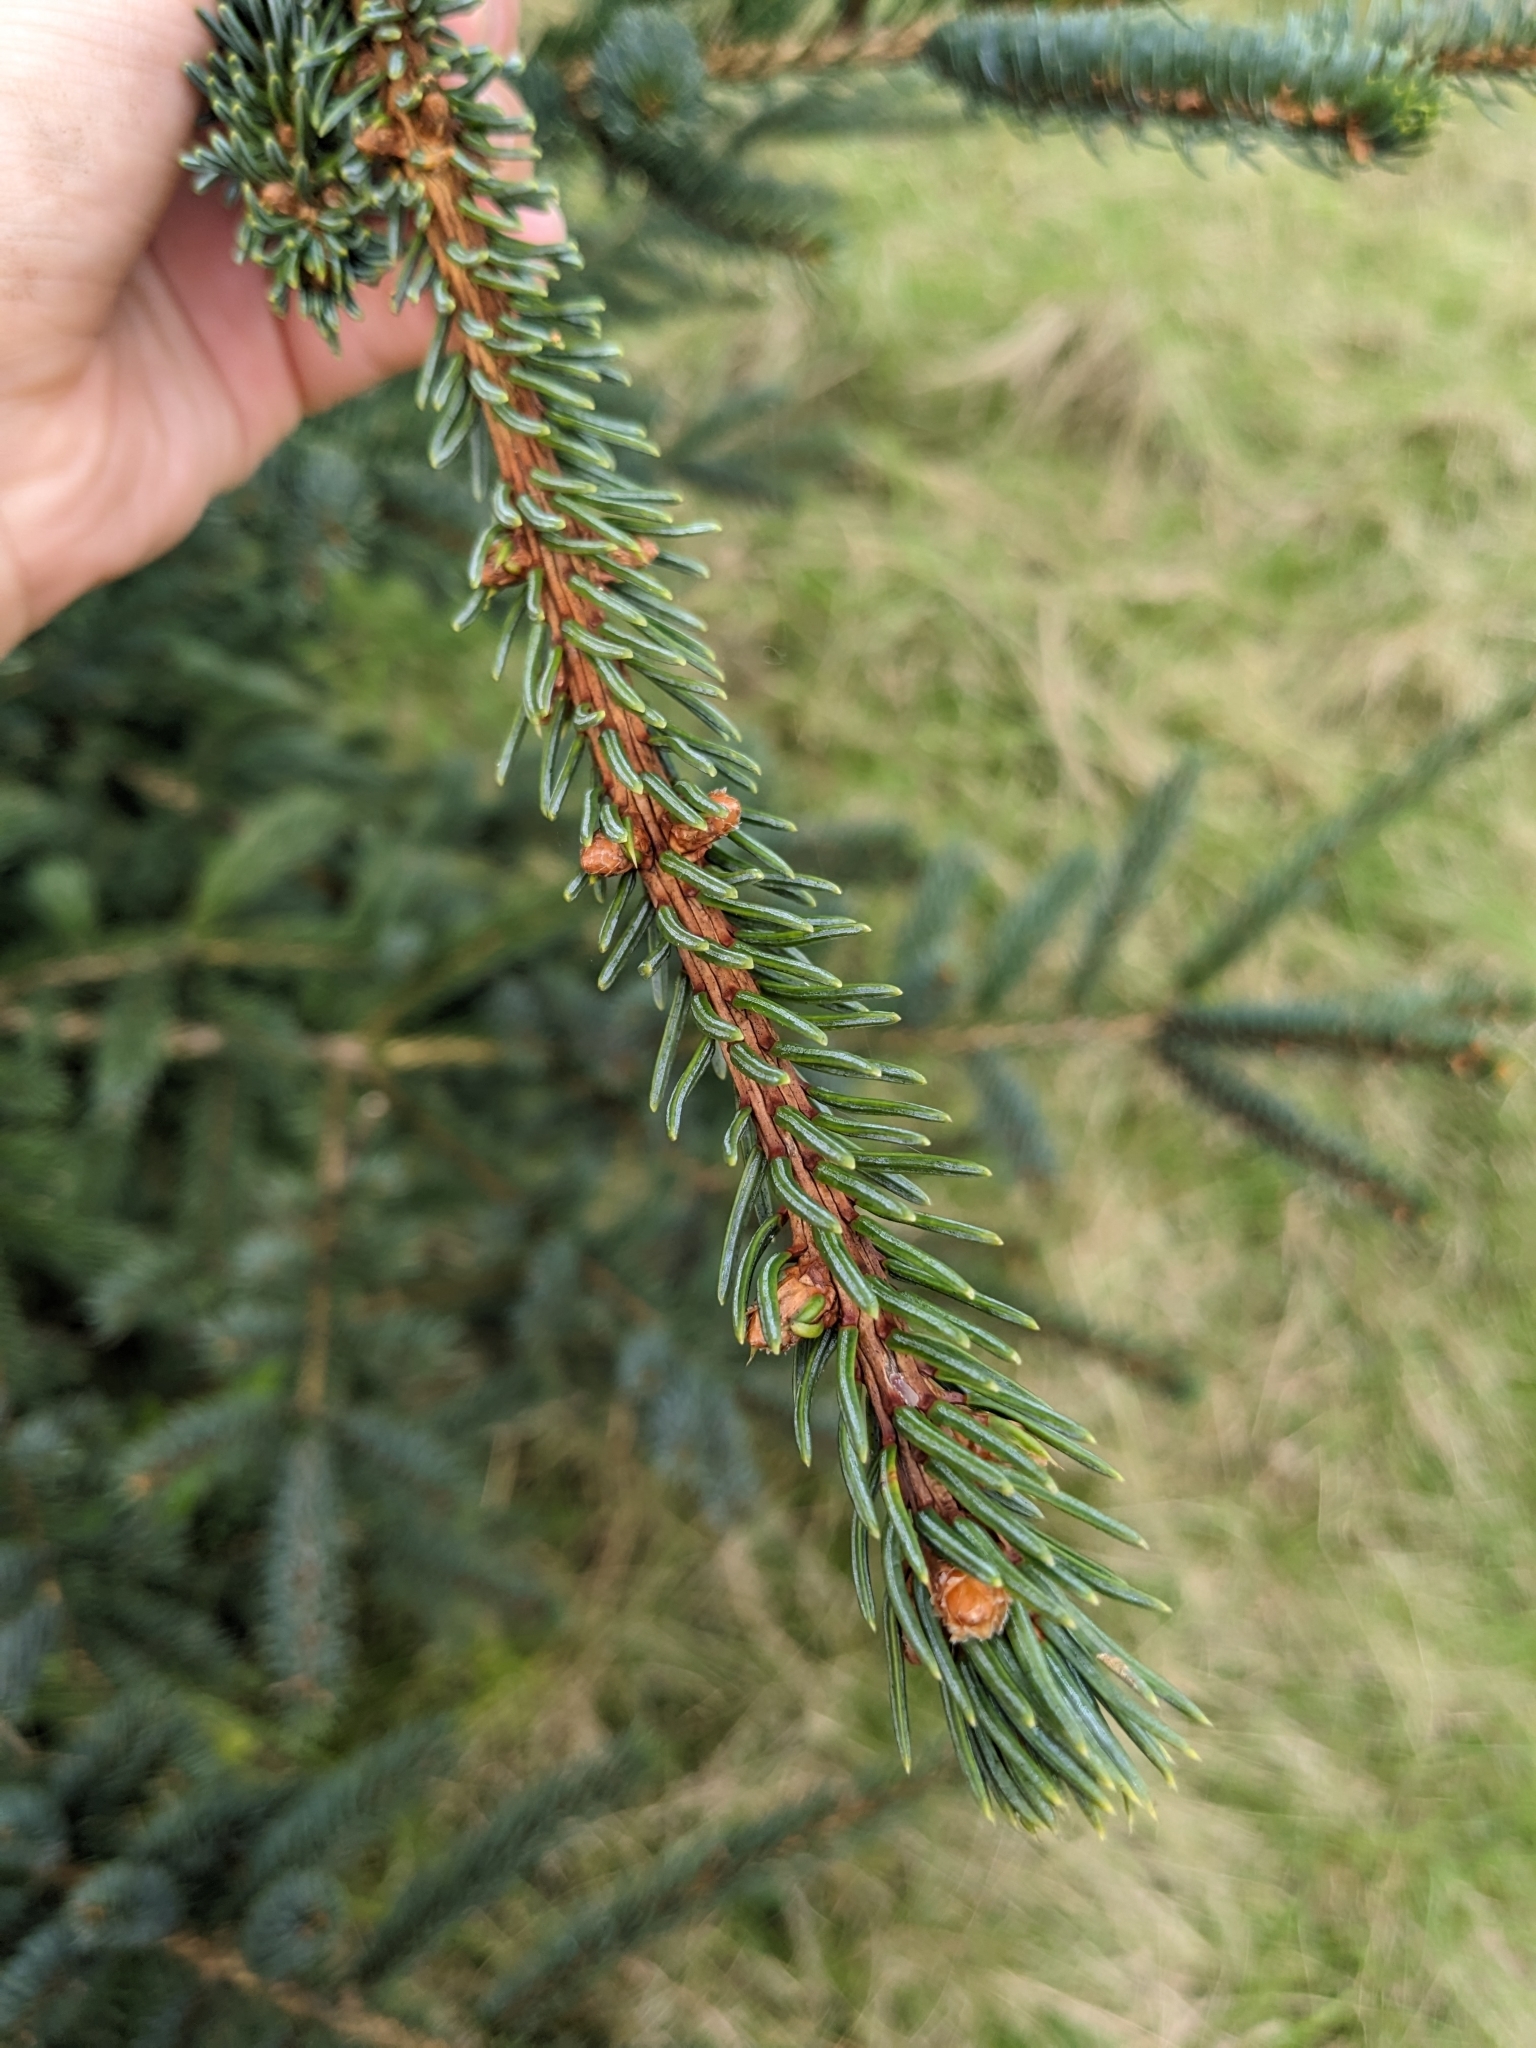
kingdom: Plantae
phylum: Tracheophyta
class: Pinopsida
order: Pinales
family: Pinaceae
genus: Picea
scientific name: Picea glauca
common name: White spruce
